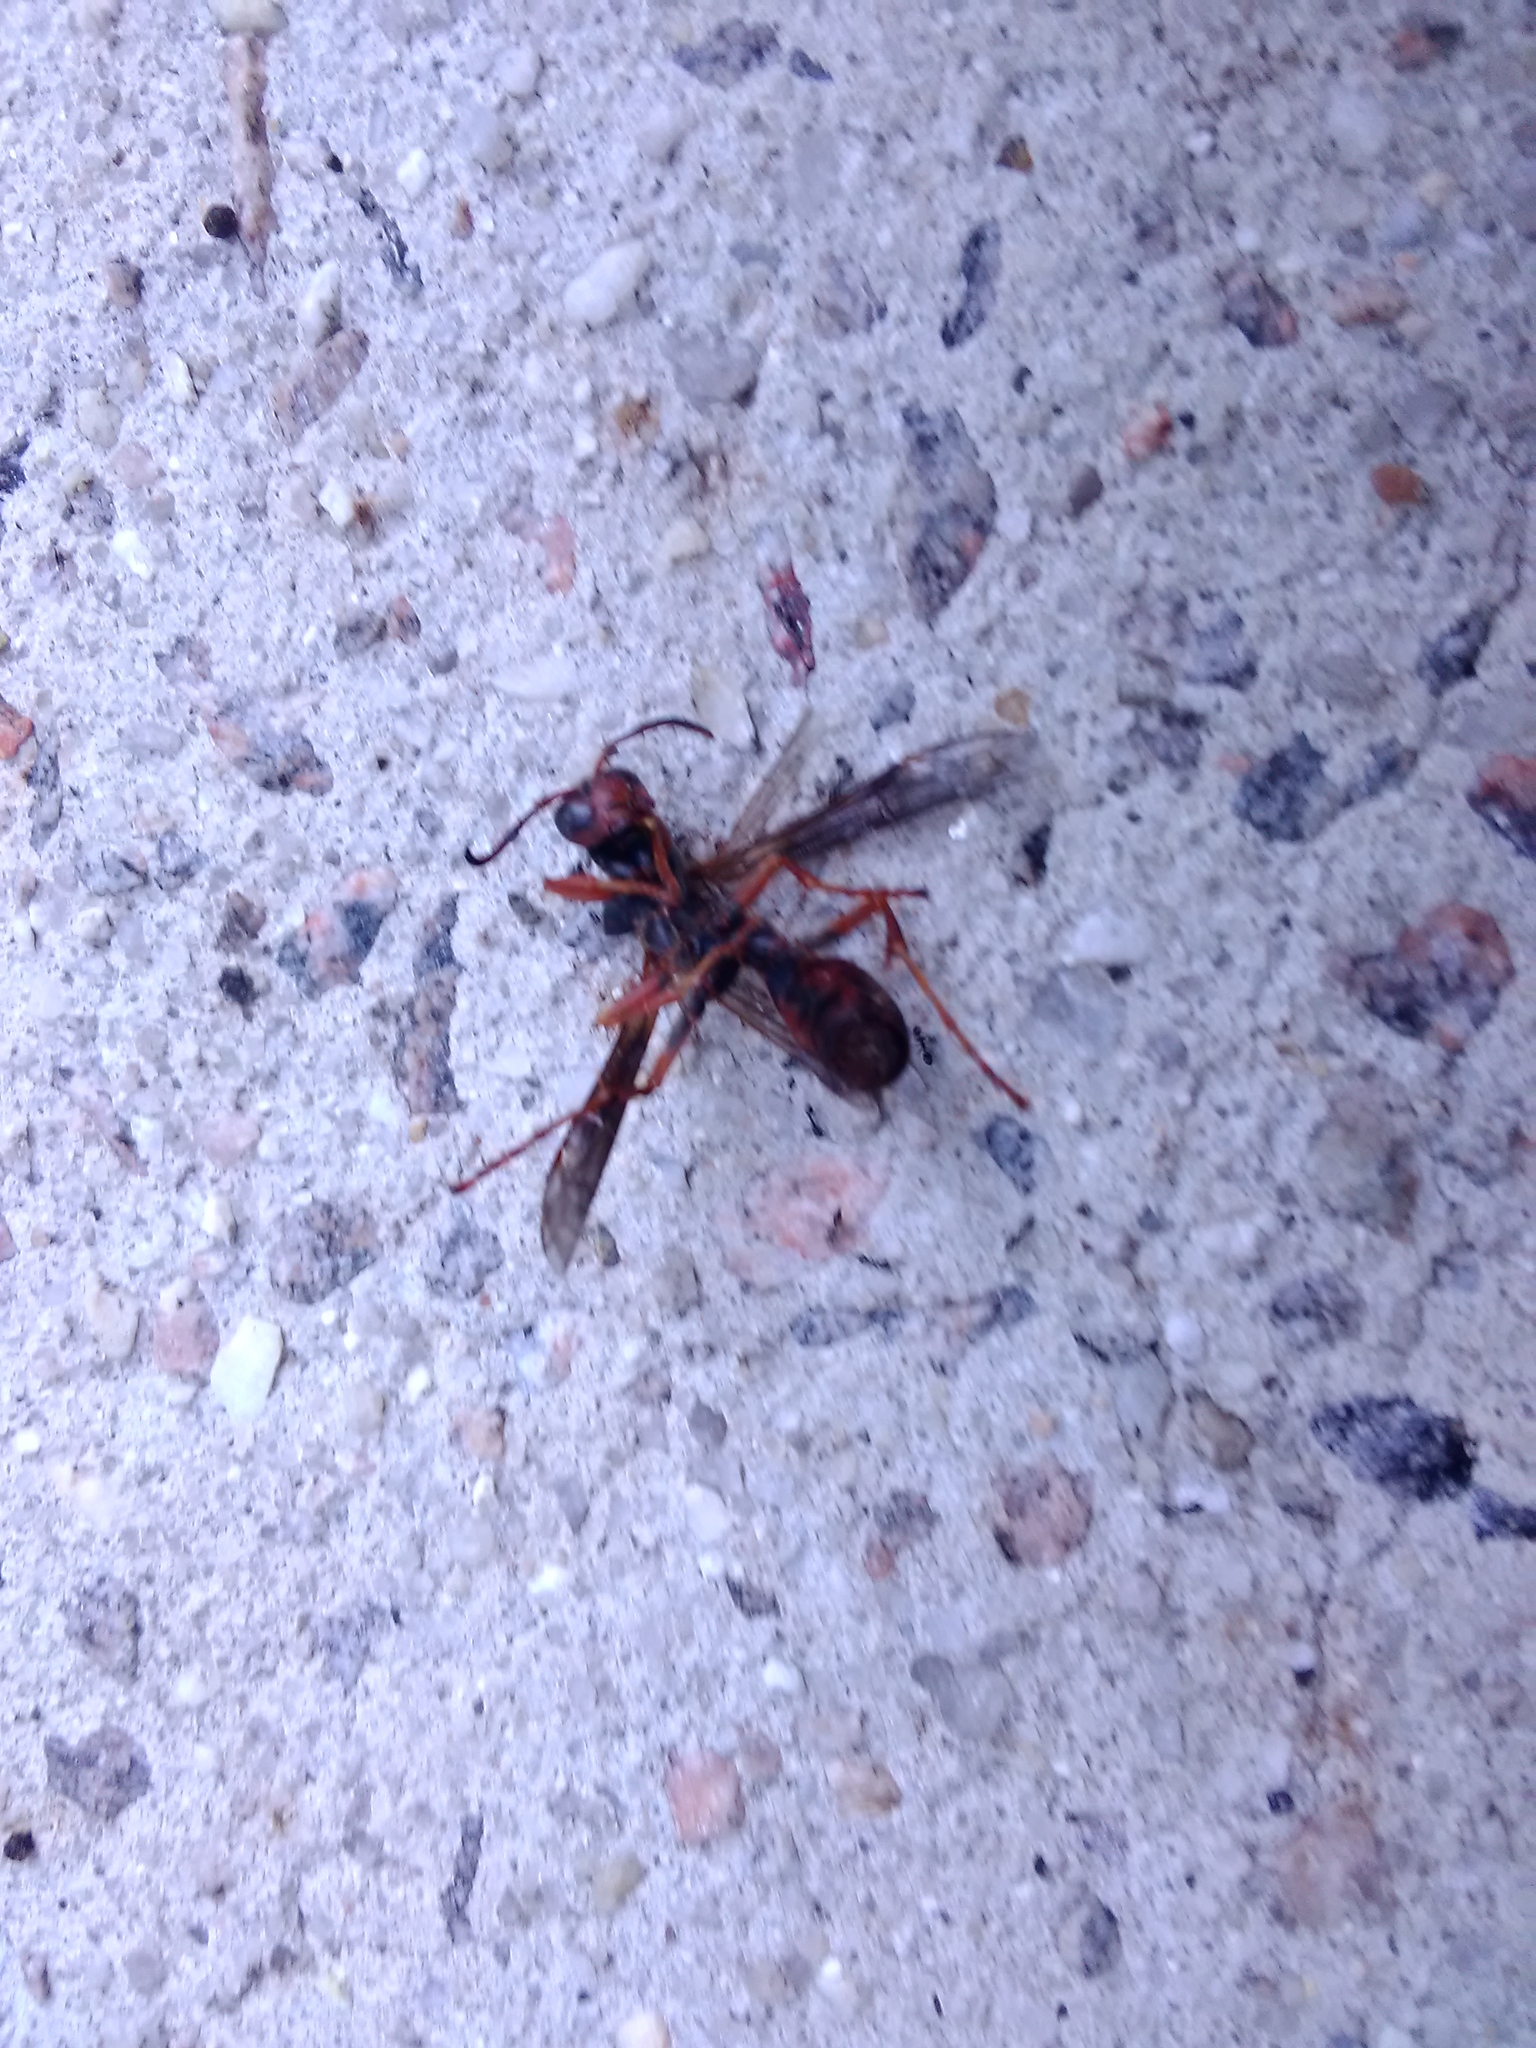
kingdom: Animalia
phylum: Arthropoda
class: Insecta
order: Hymenoptera
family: Vespidae
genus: Fuscopolistes
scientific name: Fuscopolistes
